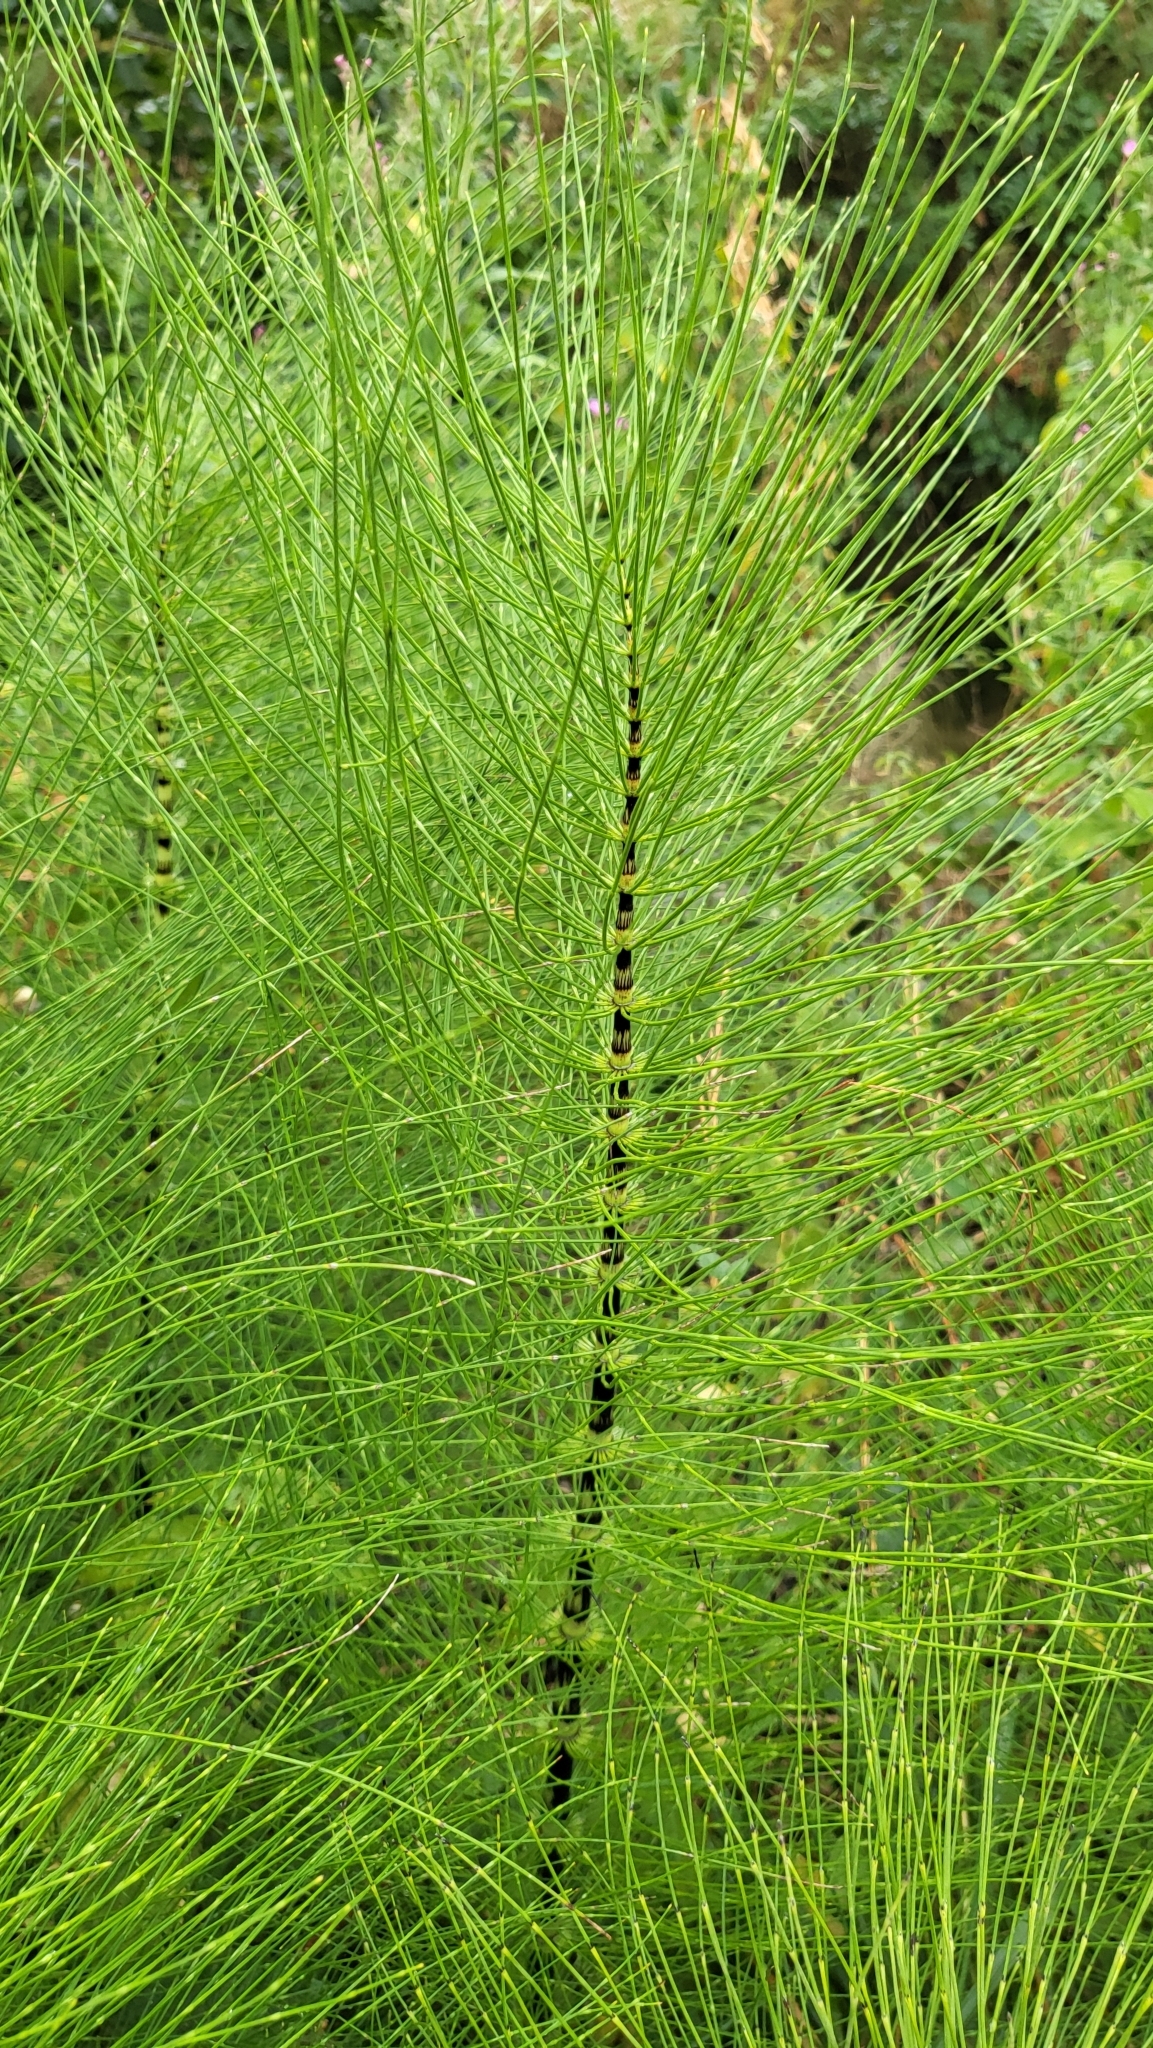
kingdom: Plantae
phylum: Tracheophyta
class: Polypodiopsida
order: Equisetales
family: Equisetaceae
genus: Equisetum
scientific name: Equisetum telmateia
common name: Great horsetail
